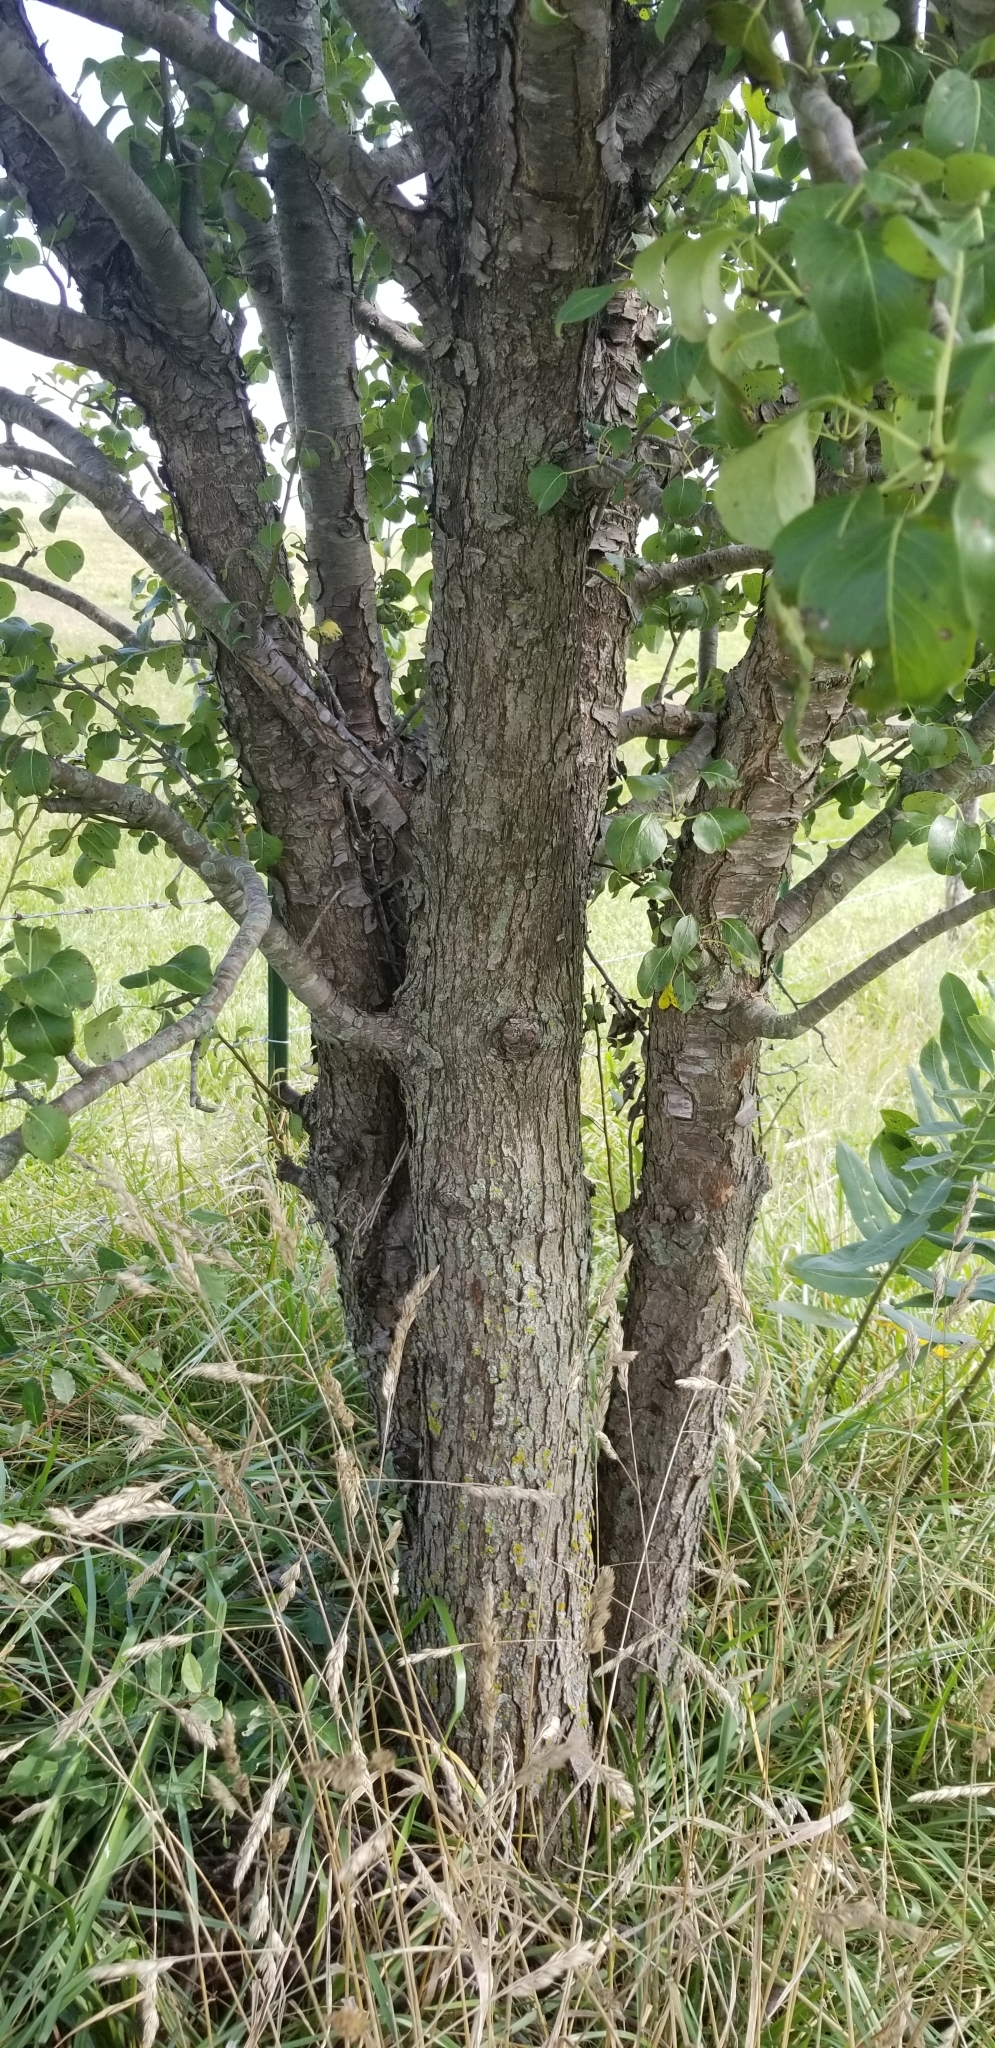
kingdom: Plantae
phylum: Tracheophyta
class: Magnoliopsida
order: Rosales
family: Rosaceae
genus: Pyrus
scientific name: Pyrus communis
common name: Pear
